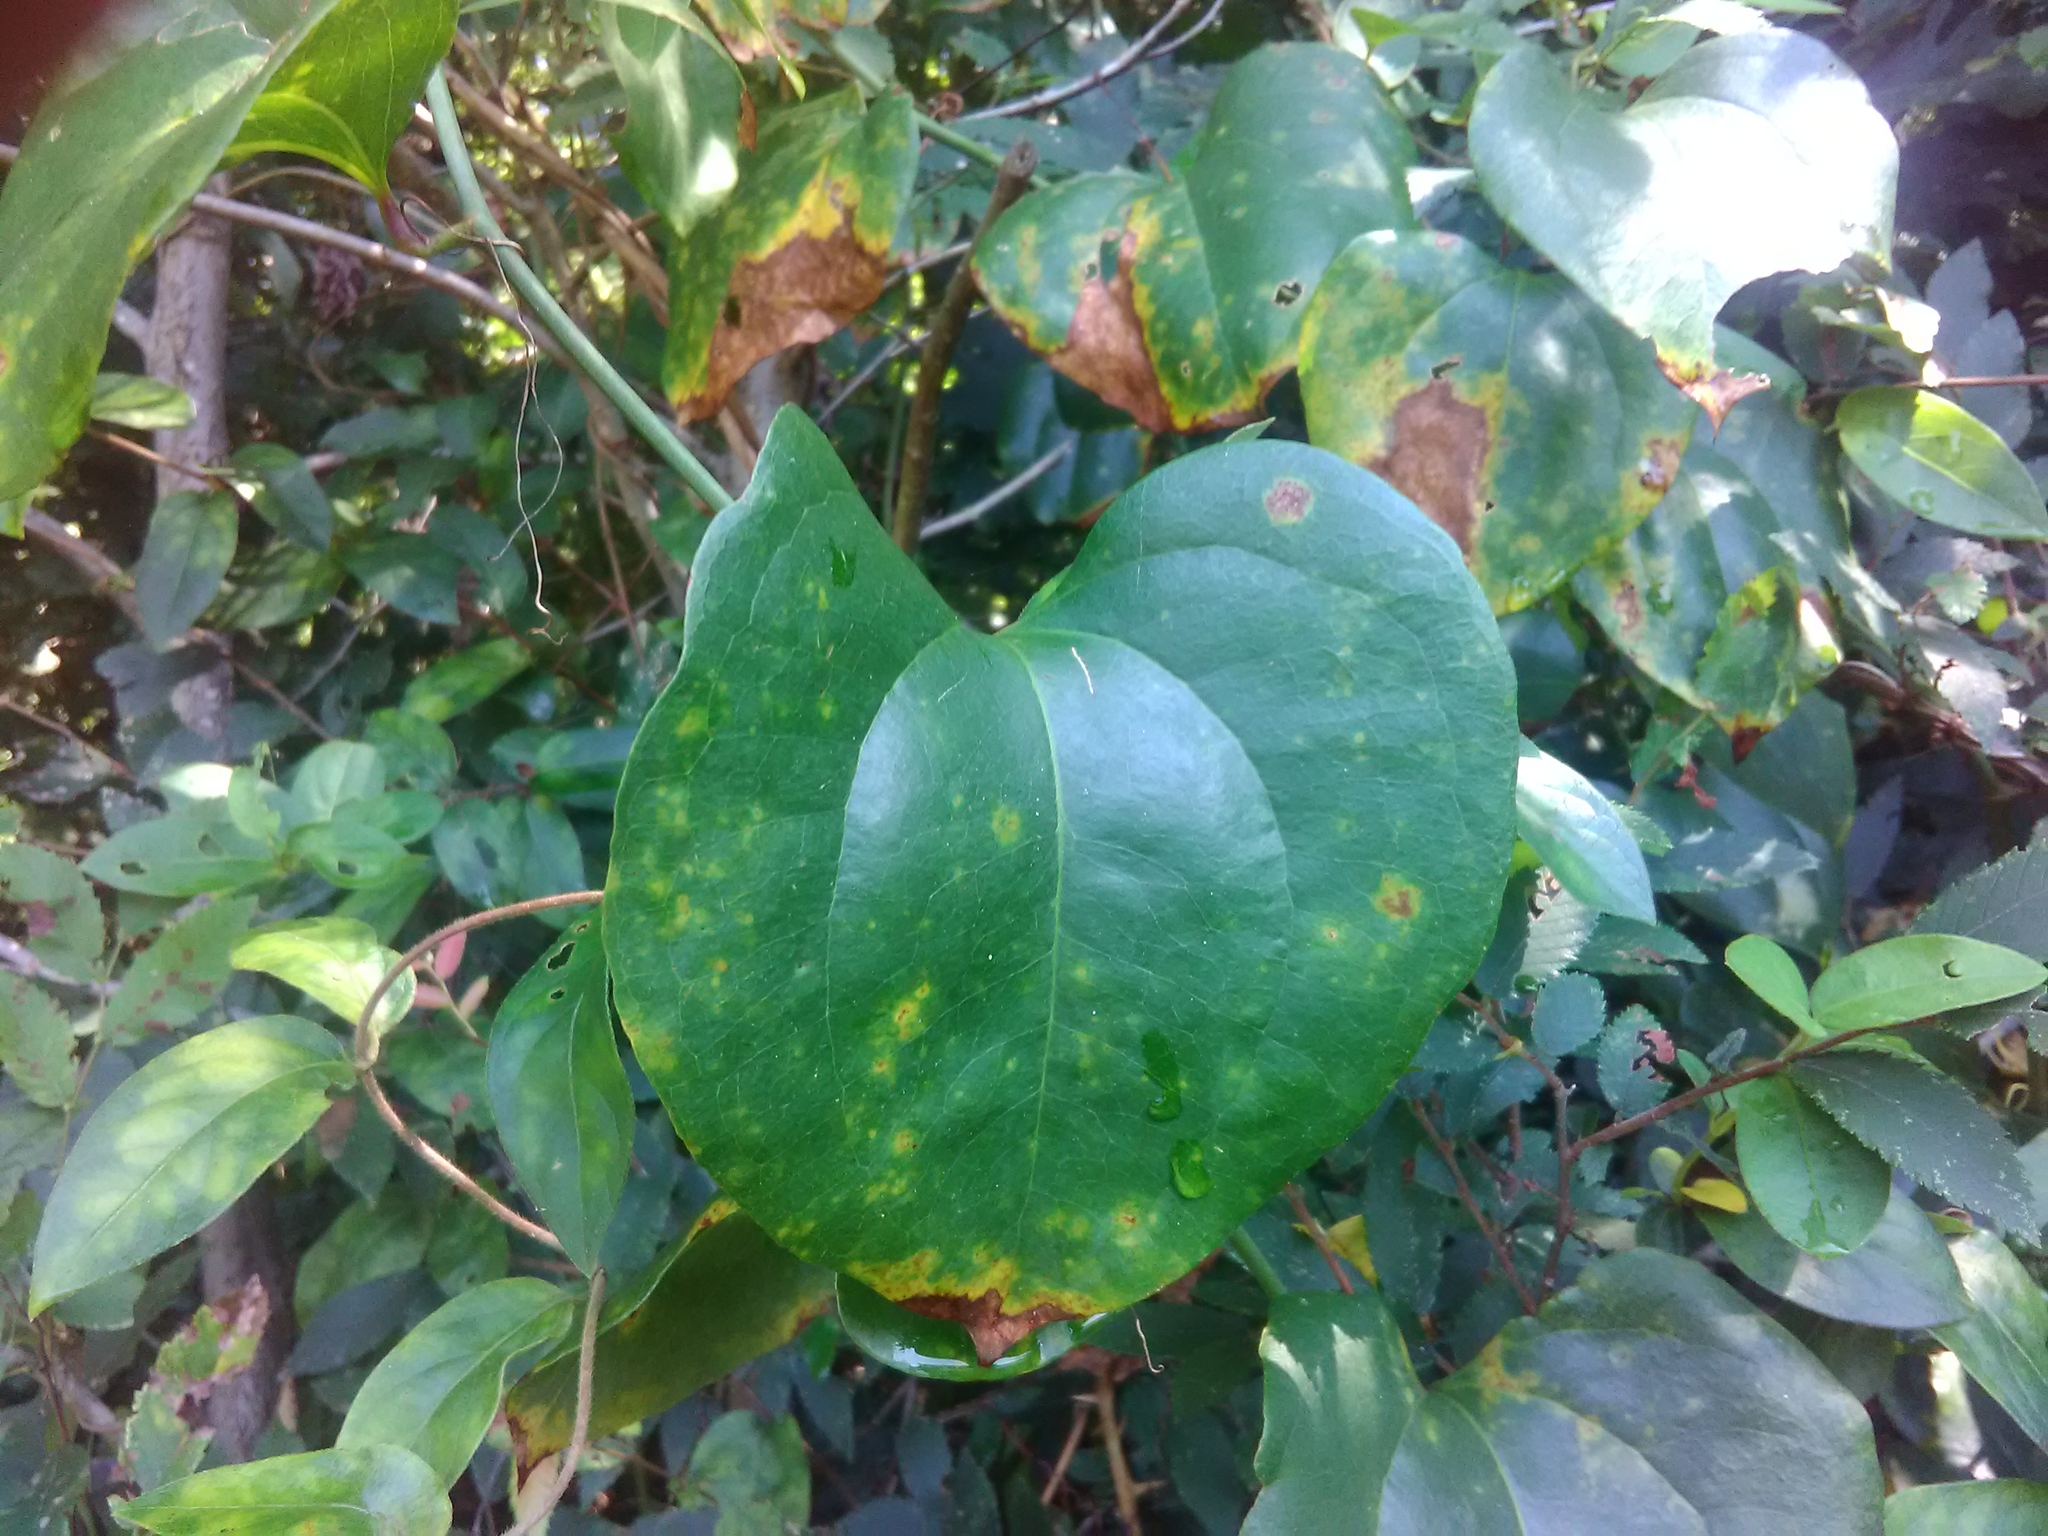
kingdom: Plantae
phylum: Tracheophyta
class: Liliopsida
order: Liliales
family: Smilacaceae
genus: Smilax
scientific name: Smilax rotundifolia
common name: Bullbriar
